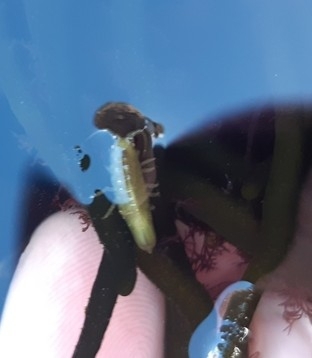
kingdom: Animalia
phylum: Arthropoda
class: Malacostraca
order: Isopoda
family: Idoteidae
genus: Idotea
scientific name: Idotea granulosa
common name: Granular marine isopod
